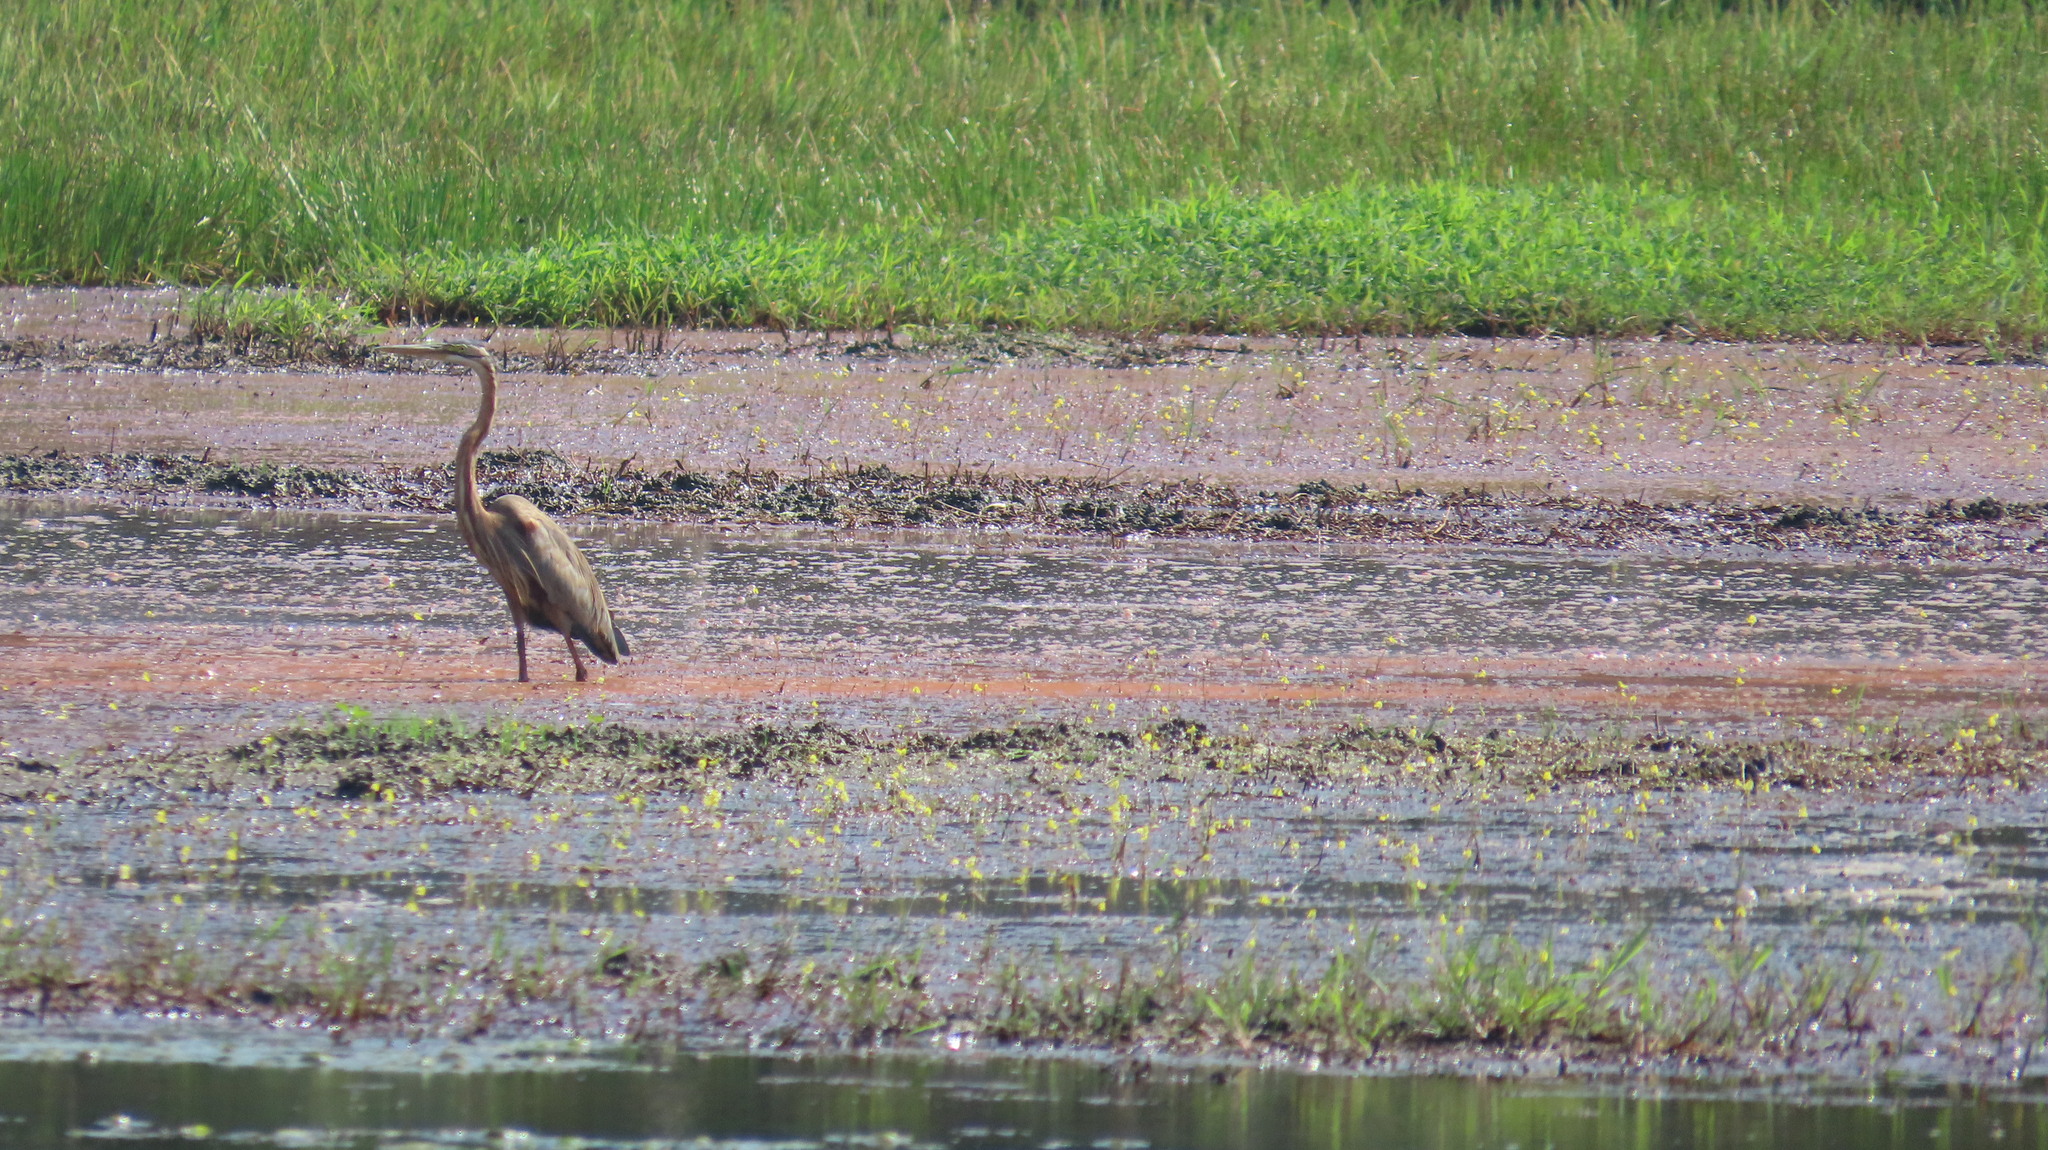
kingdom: Animalia
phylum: Chordata
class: Aves
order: Pelecaniformes
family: Ardeidae
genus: Ardea
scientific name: Ardea purpurea
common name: Purple heron
